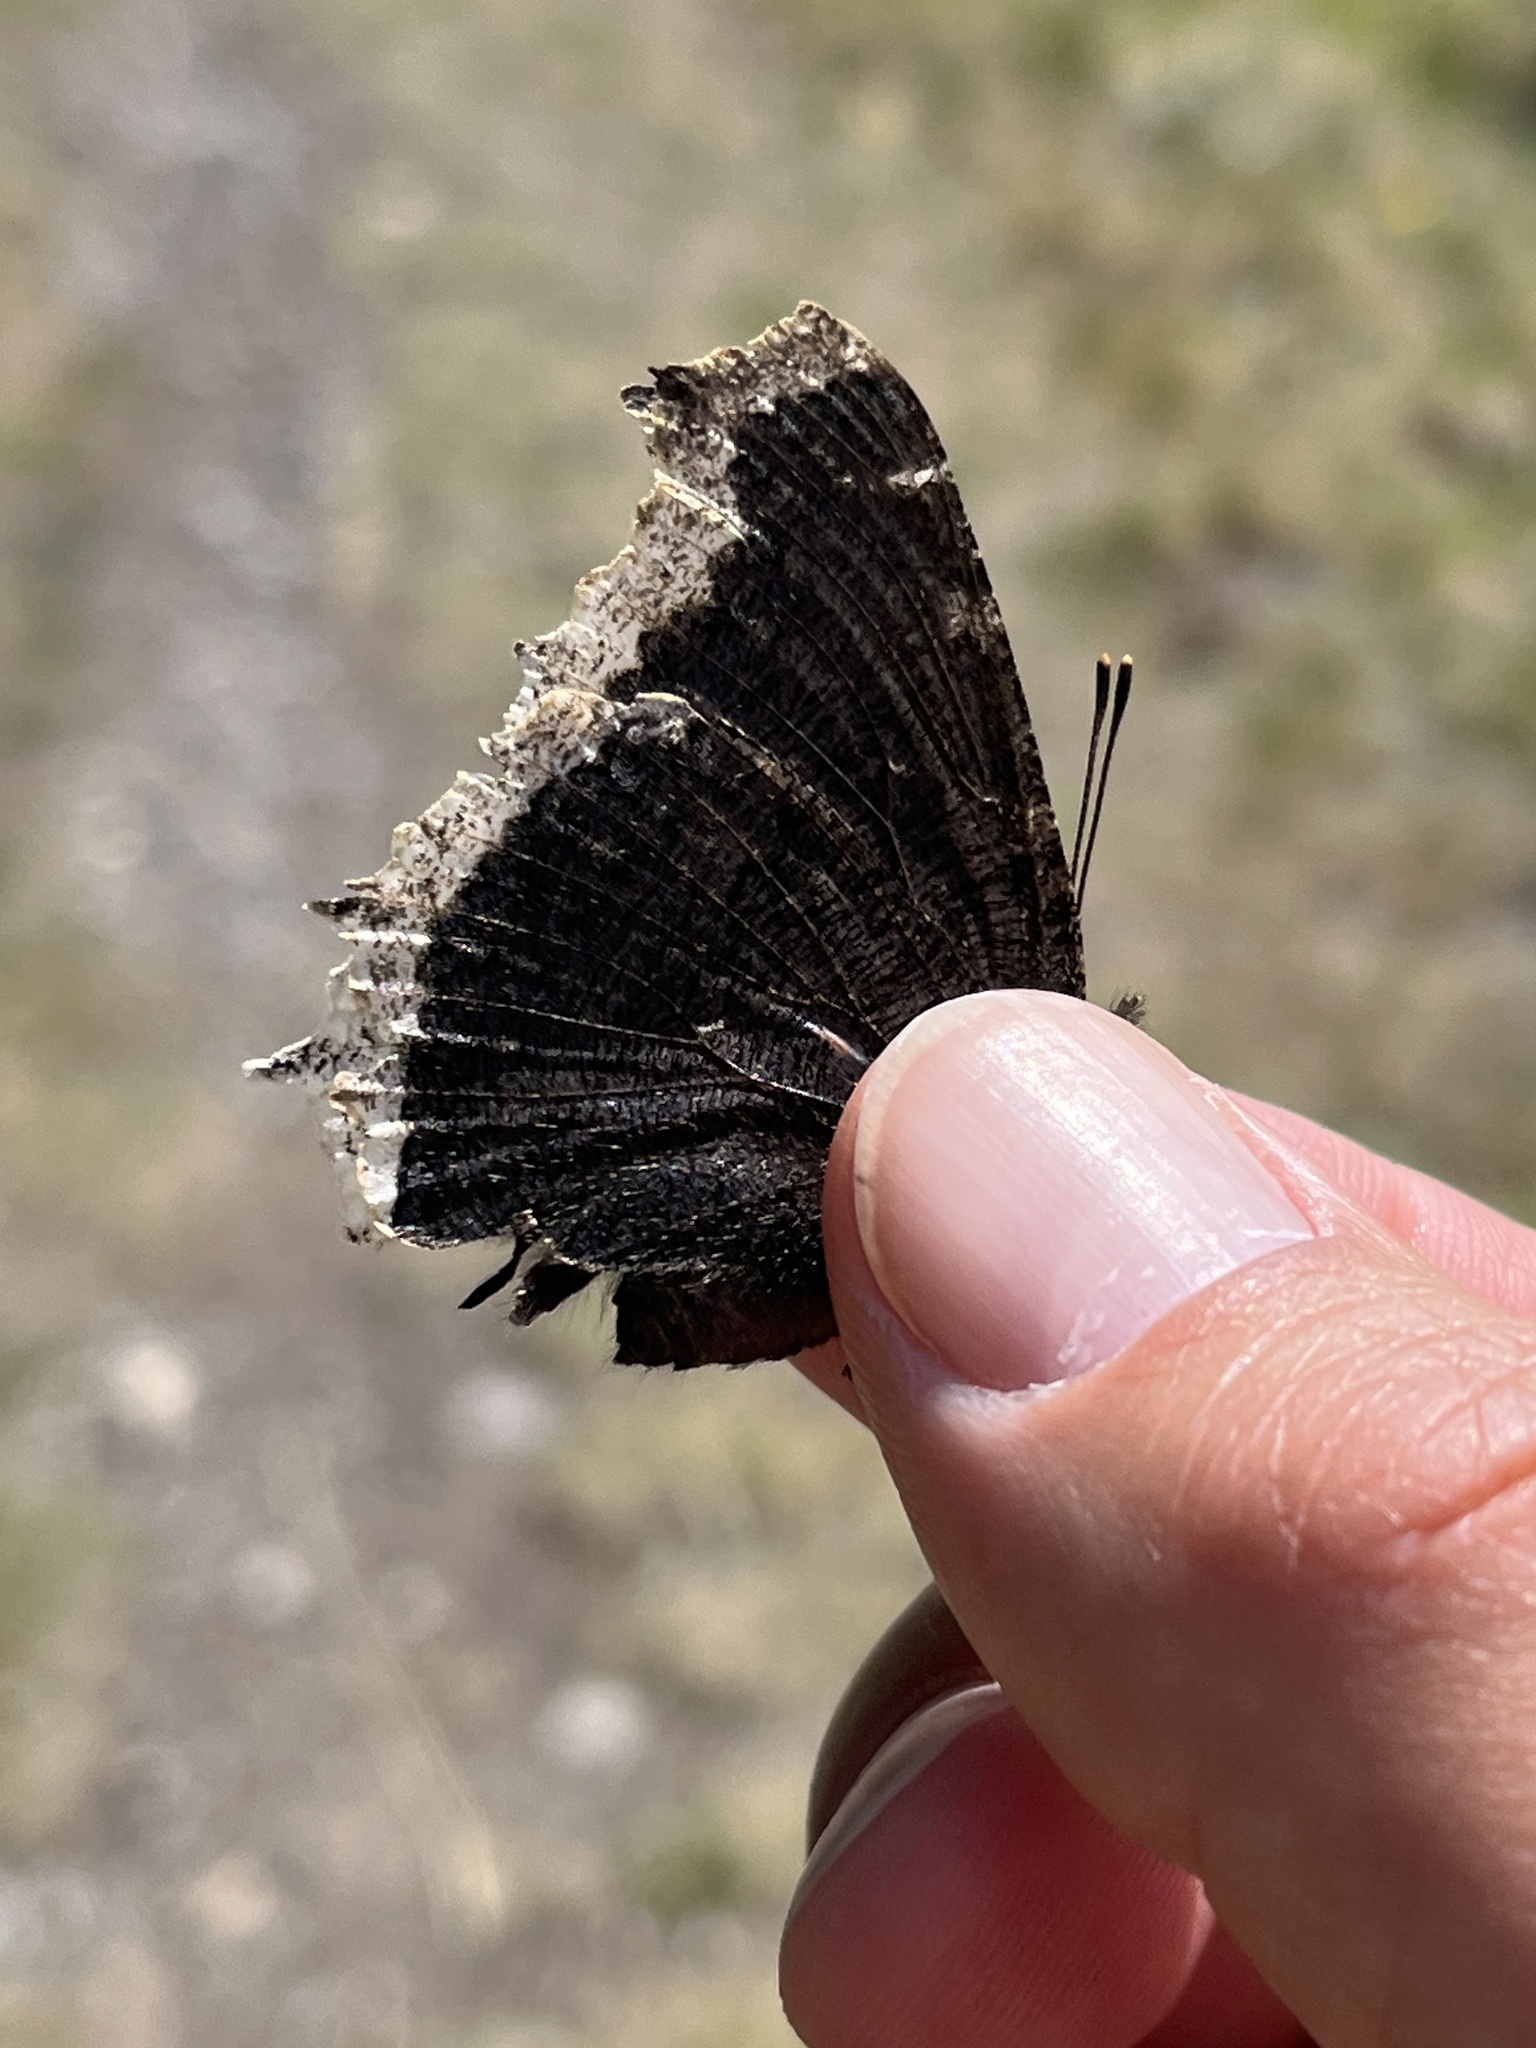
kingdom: Animalia
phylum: Arthropoda
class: Insecta
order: Lepidoptera
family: Nymphalidae
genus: Nymphalis
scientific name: Nymphalis antiopa
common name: Camberwell beauty
